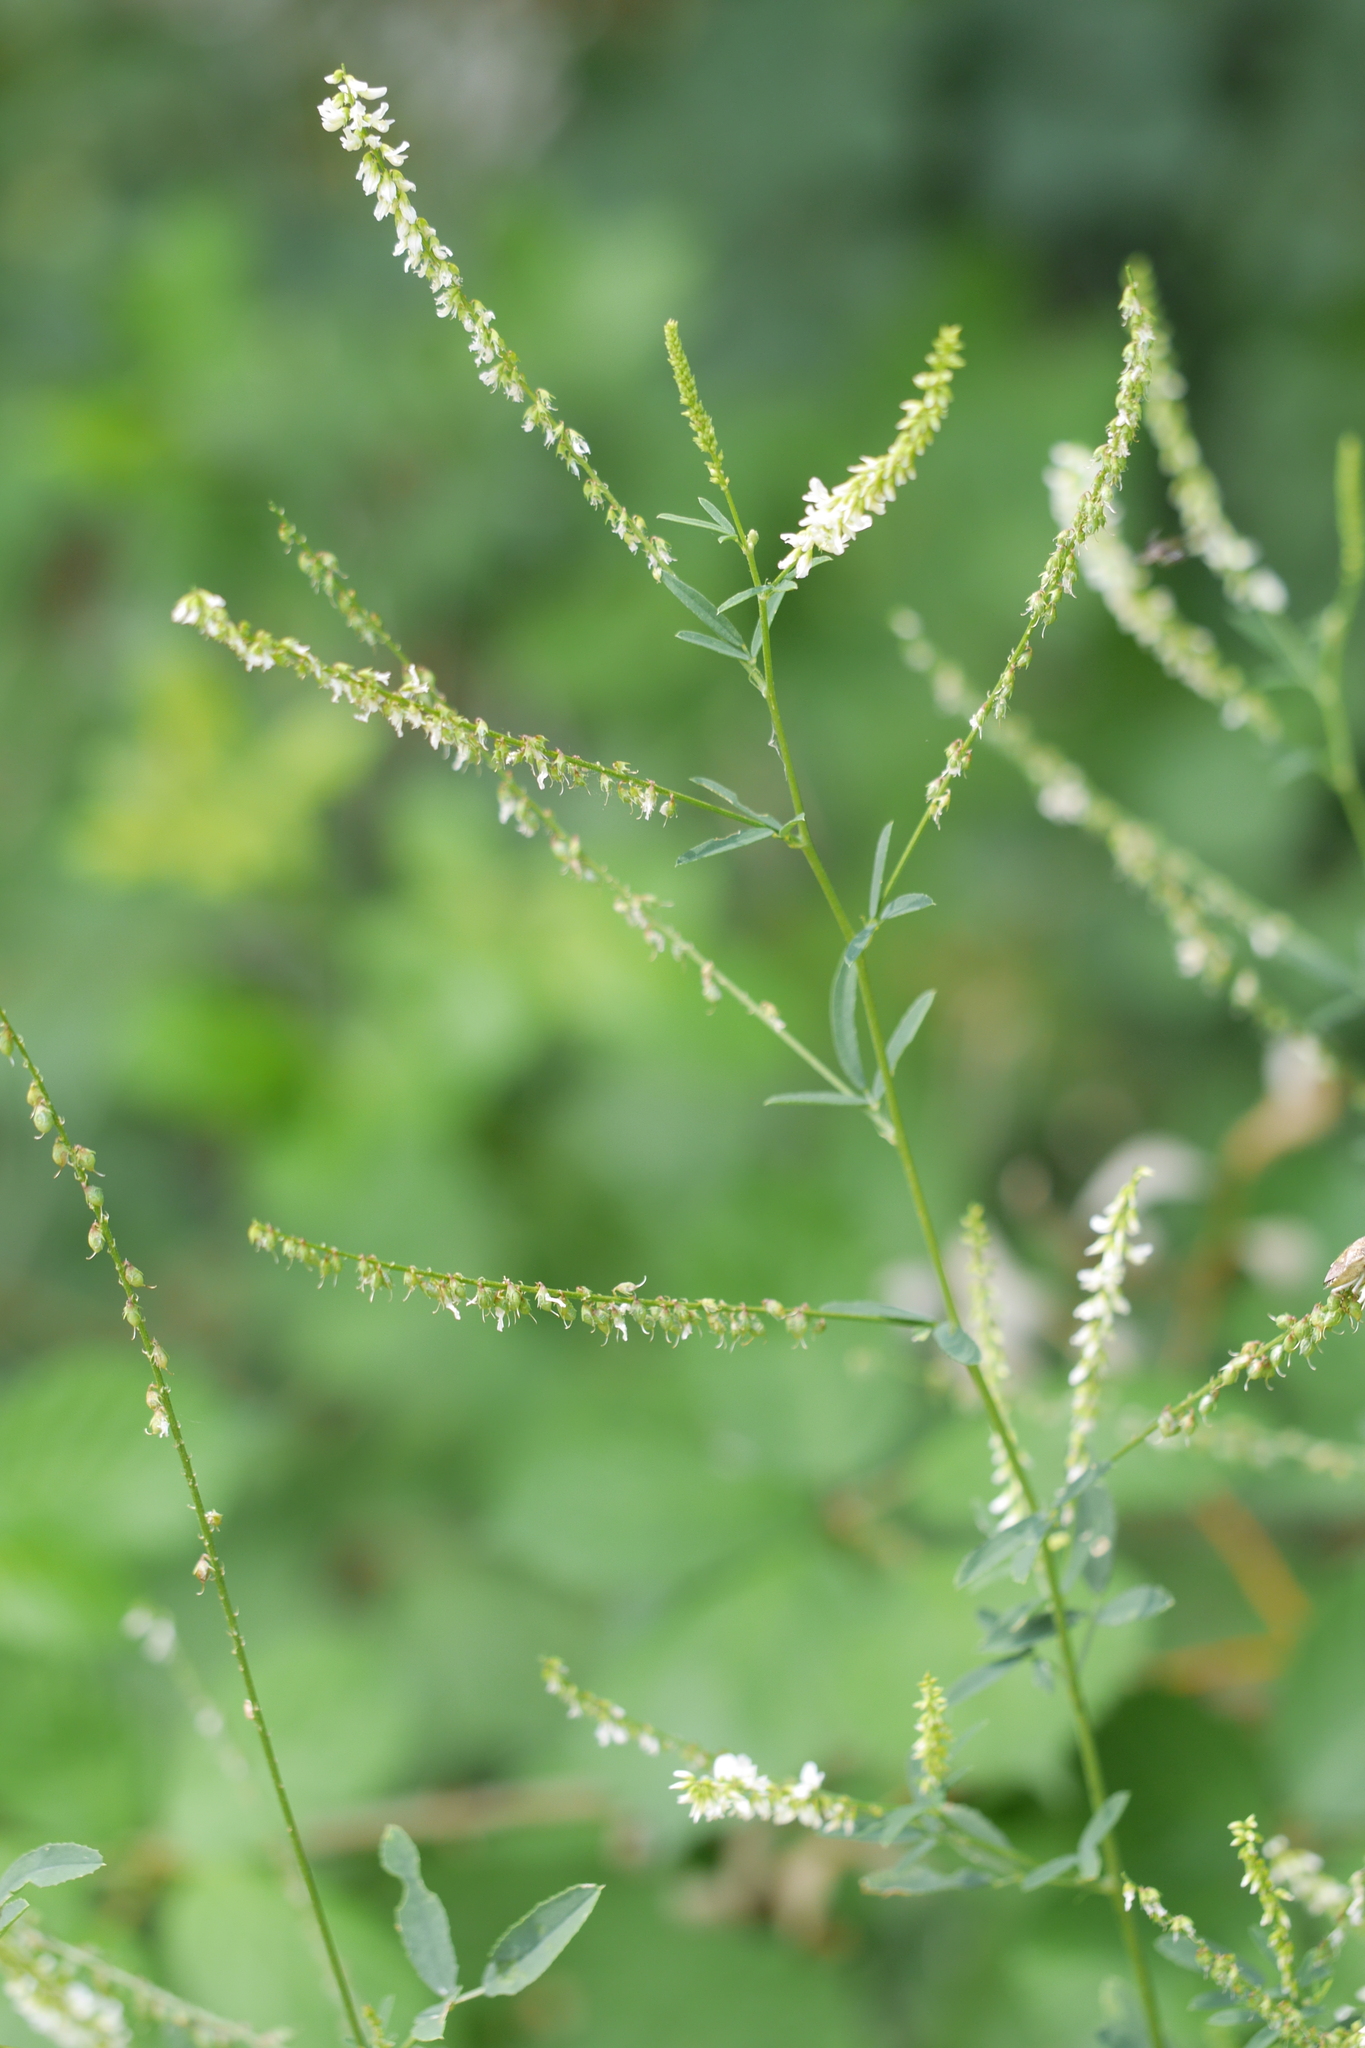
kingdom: Plantae
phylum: Tracheophyta
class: Magnoliopsida
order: Fabales
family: Fabaceae
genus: Melilotus
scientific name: Melilotus albus
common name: White melilot
